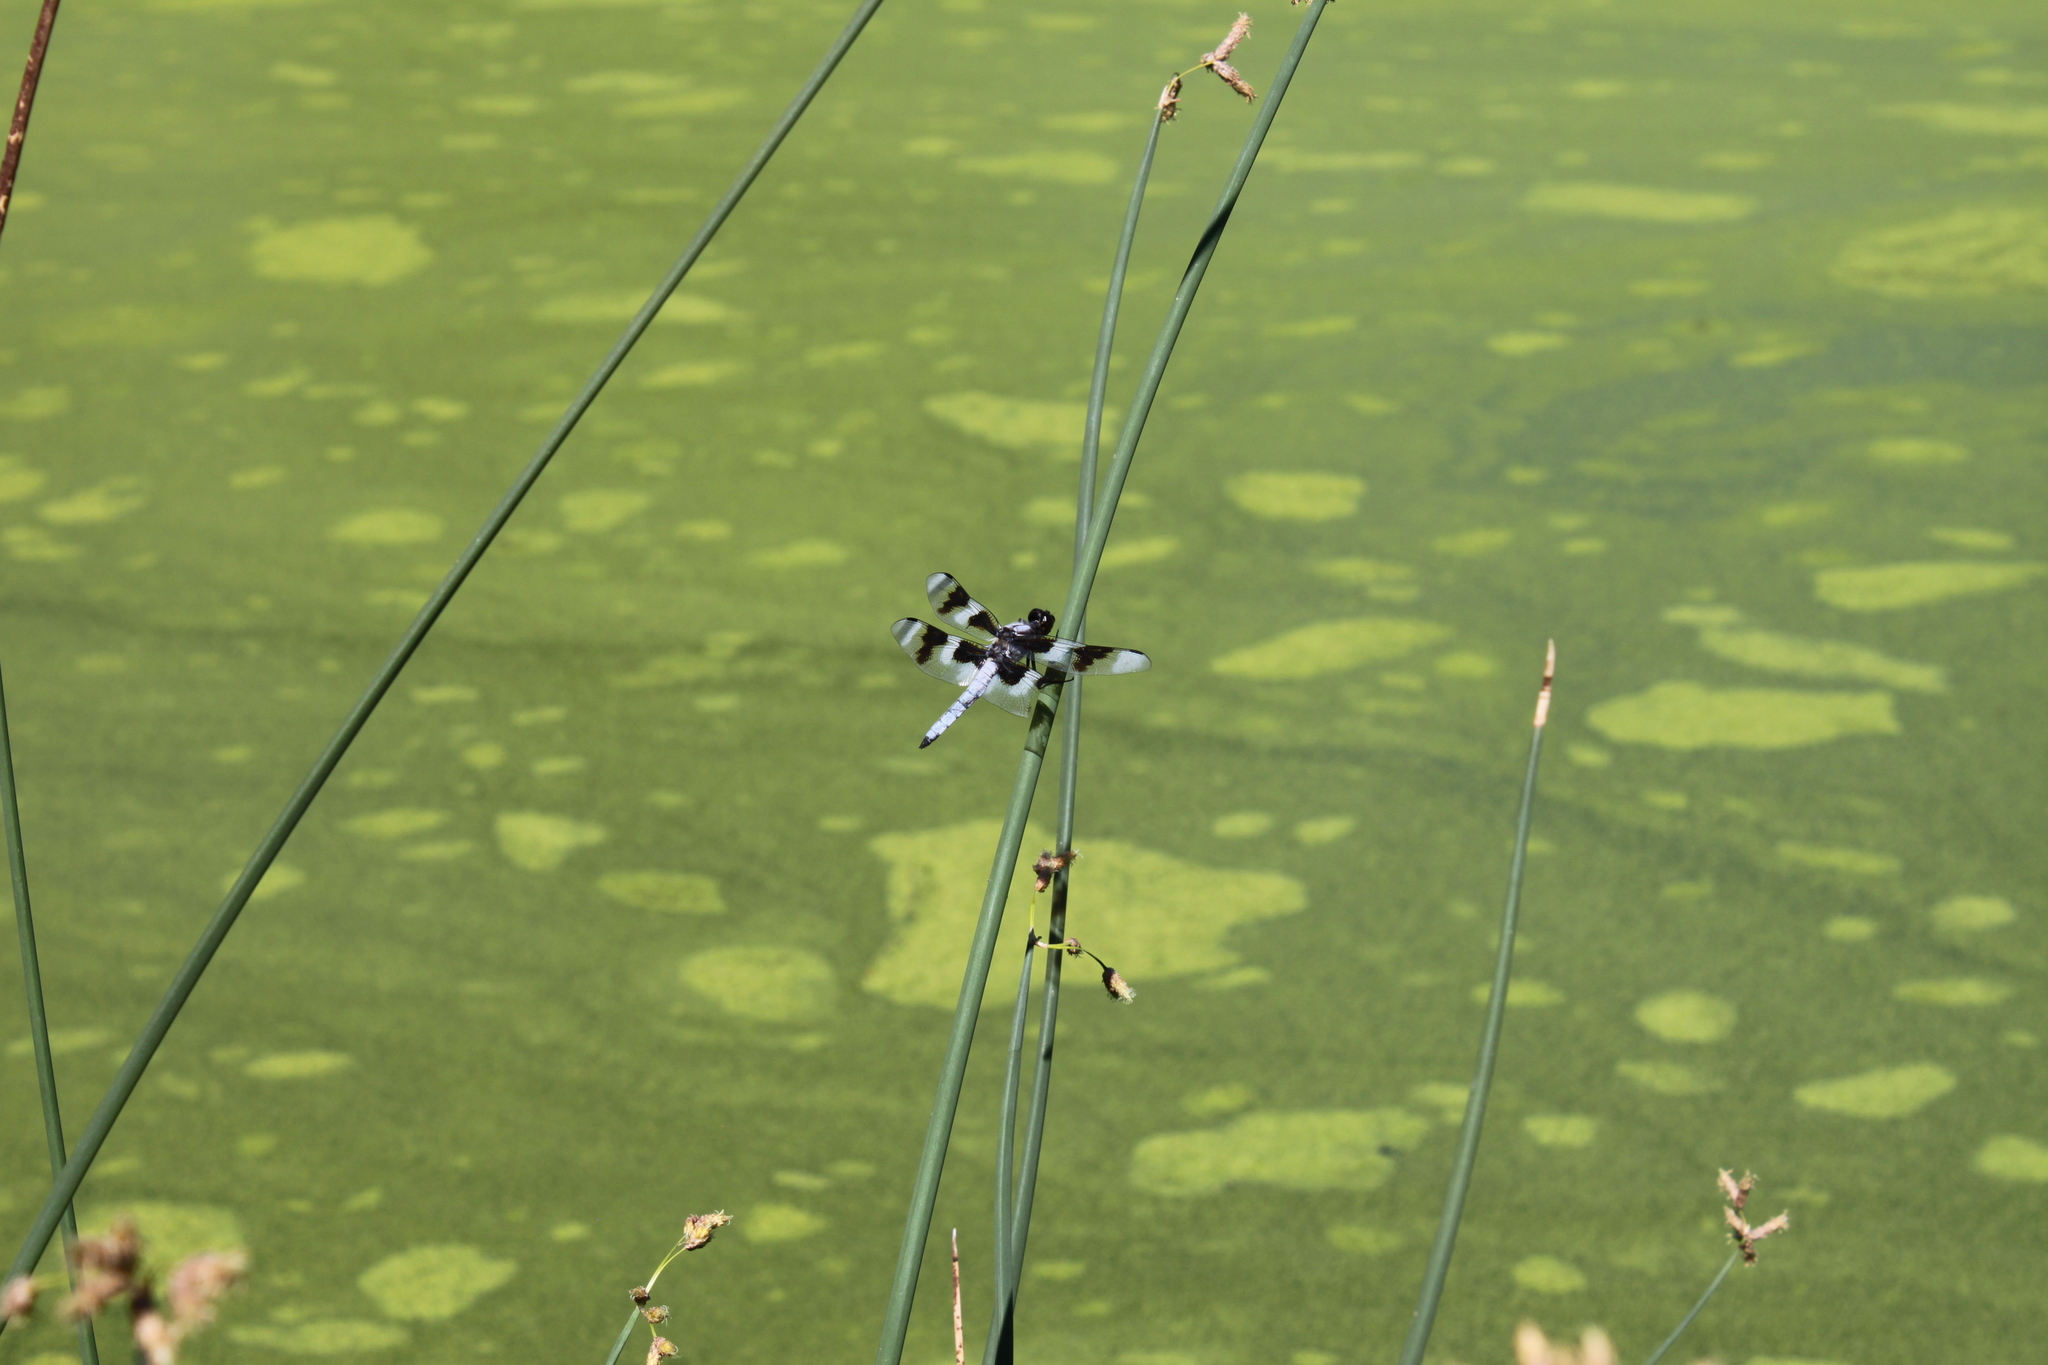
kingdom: Animalia
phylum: Arthropoda
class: Insecta
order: Odonata
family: Libellulidae
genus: Libellula
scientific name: Libellula forensis
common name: Eight-spotted skimmer
